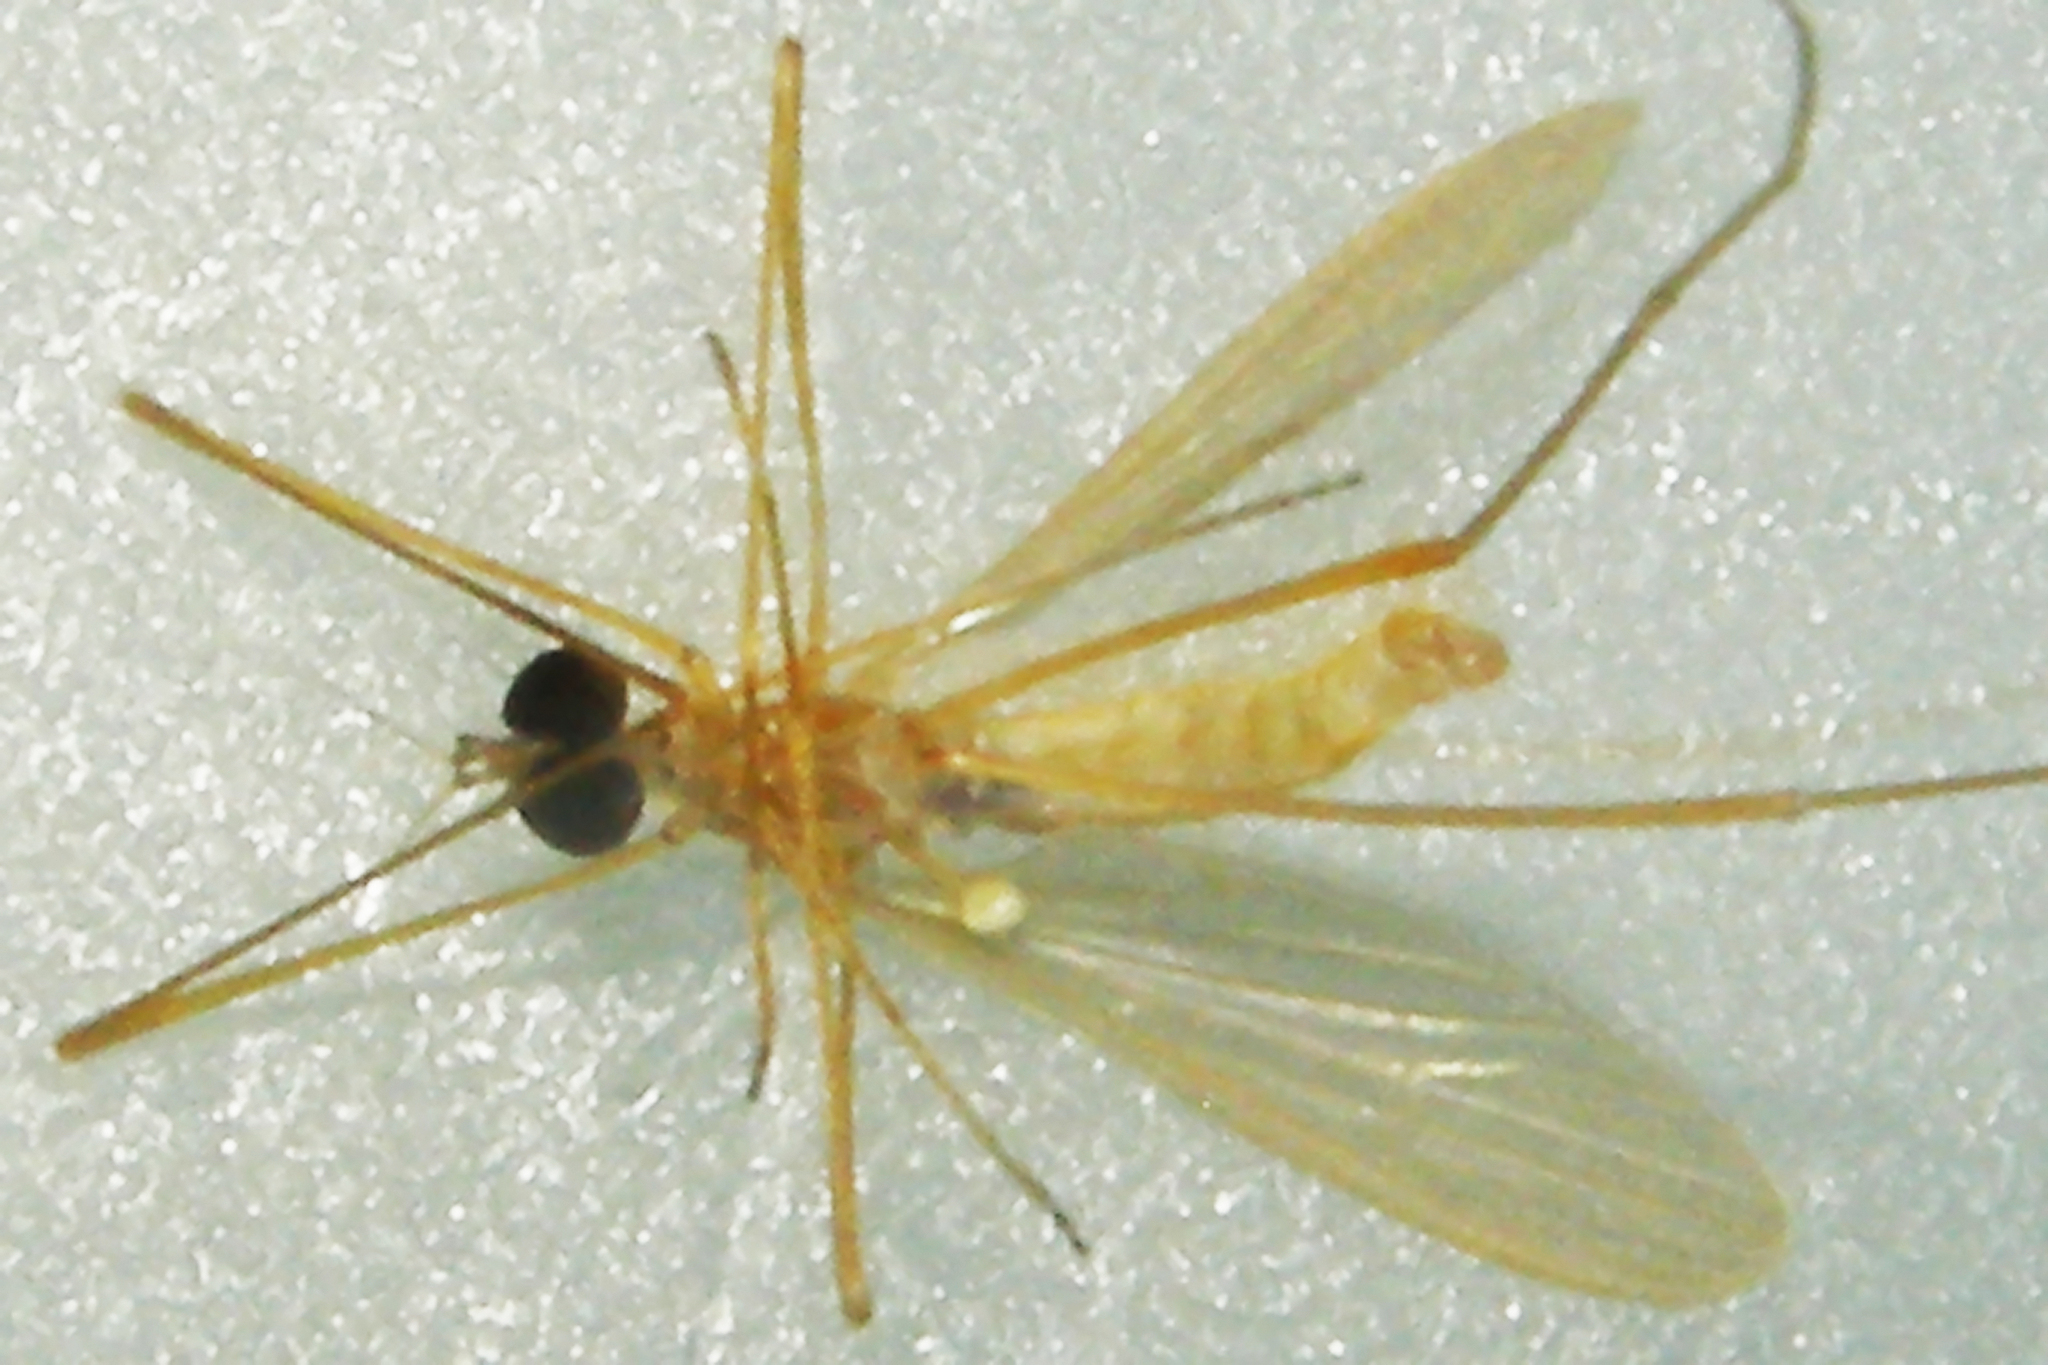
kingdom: Animalia
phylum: Arthropoda
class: Insecta
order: Diptera
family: Limoniidae
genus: Erioptera
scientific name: Erioptera vespertina
